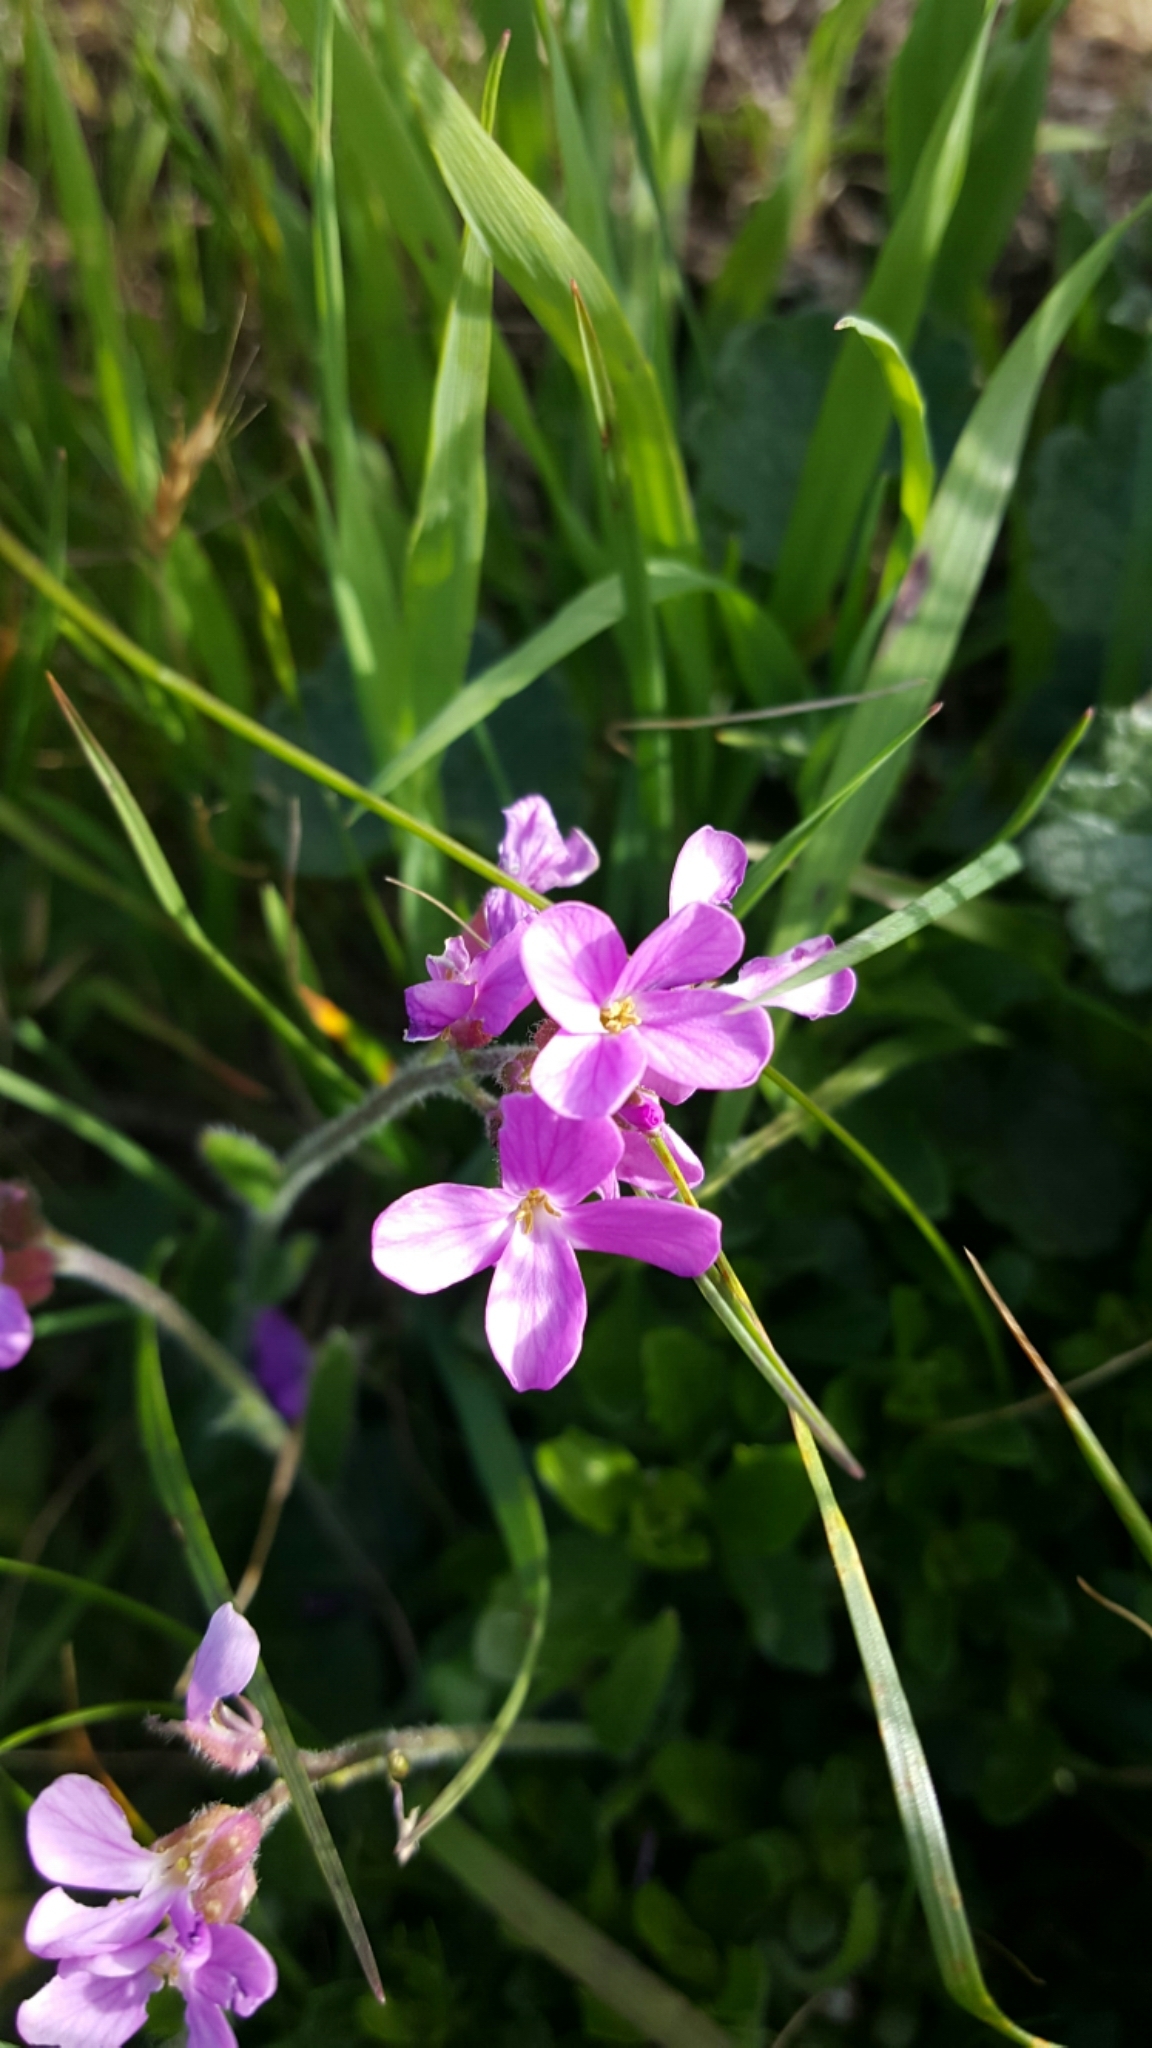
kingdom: Plantae
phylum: Tracheophyta
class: Magnoliopsida
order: Brassicales
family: Brassicaceae
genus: Arabis
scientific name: Arabis blepharophylla
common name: Rose rockcress
